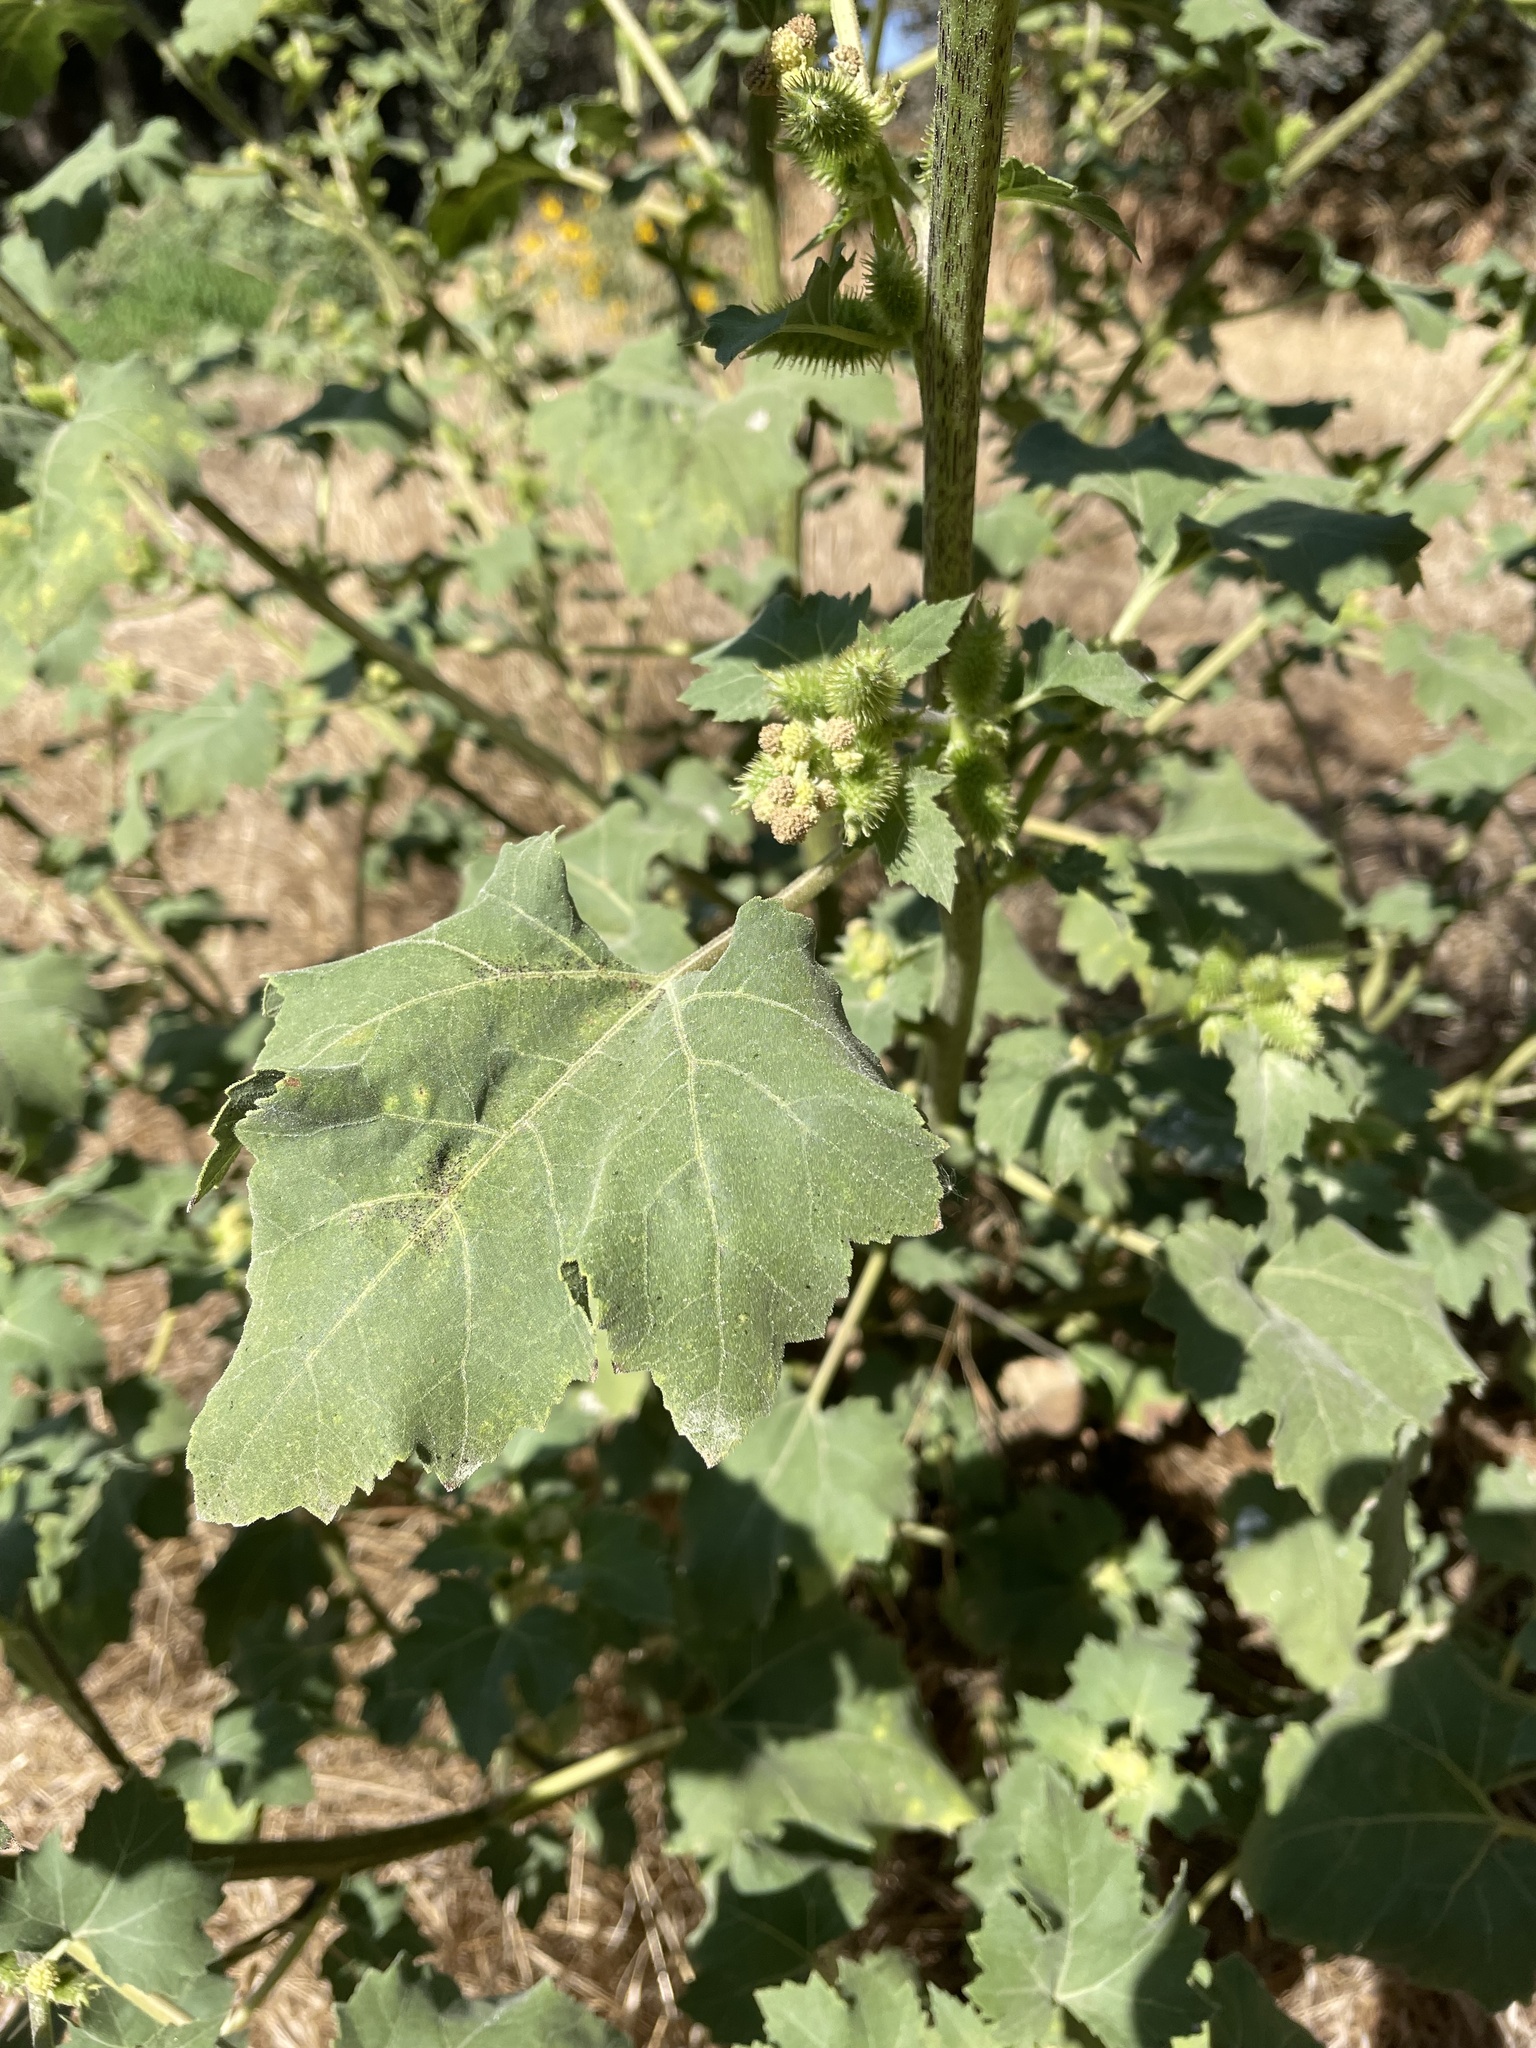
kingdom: Plantae
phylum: Tracheophyta
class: Magnoliopsida
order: Asterales
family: Asteraceae
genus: Xanthium
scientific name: Xanthium strumarium
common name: Rough cocklebur
